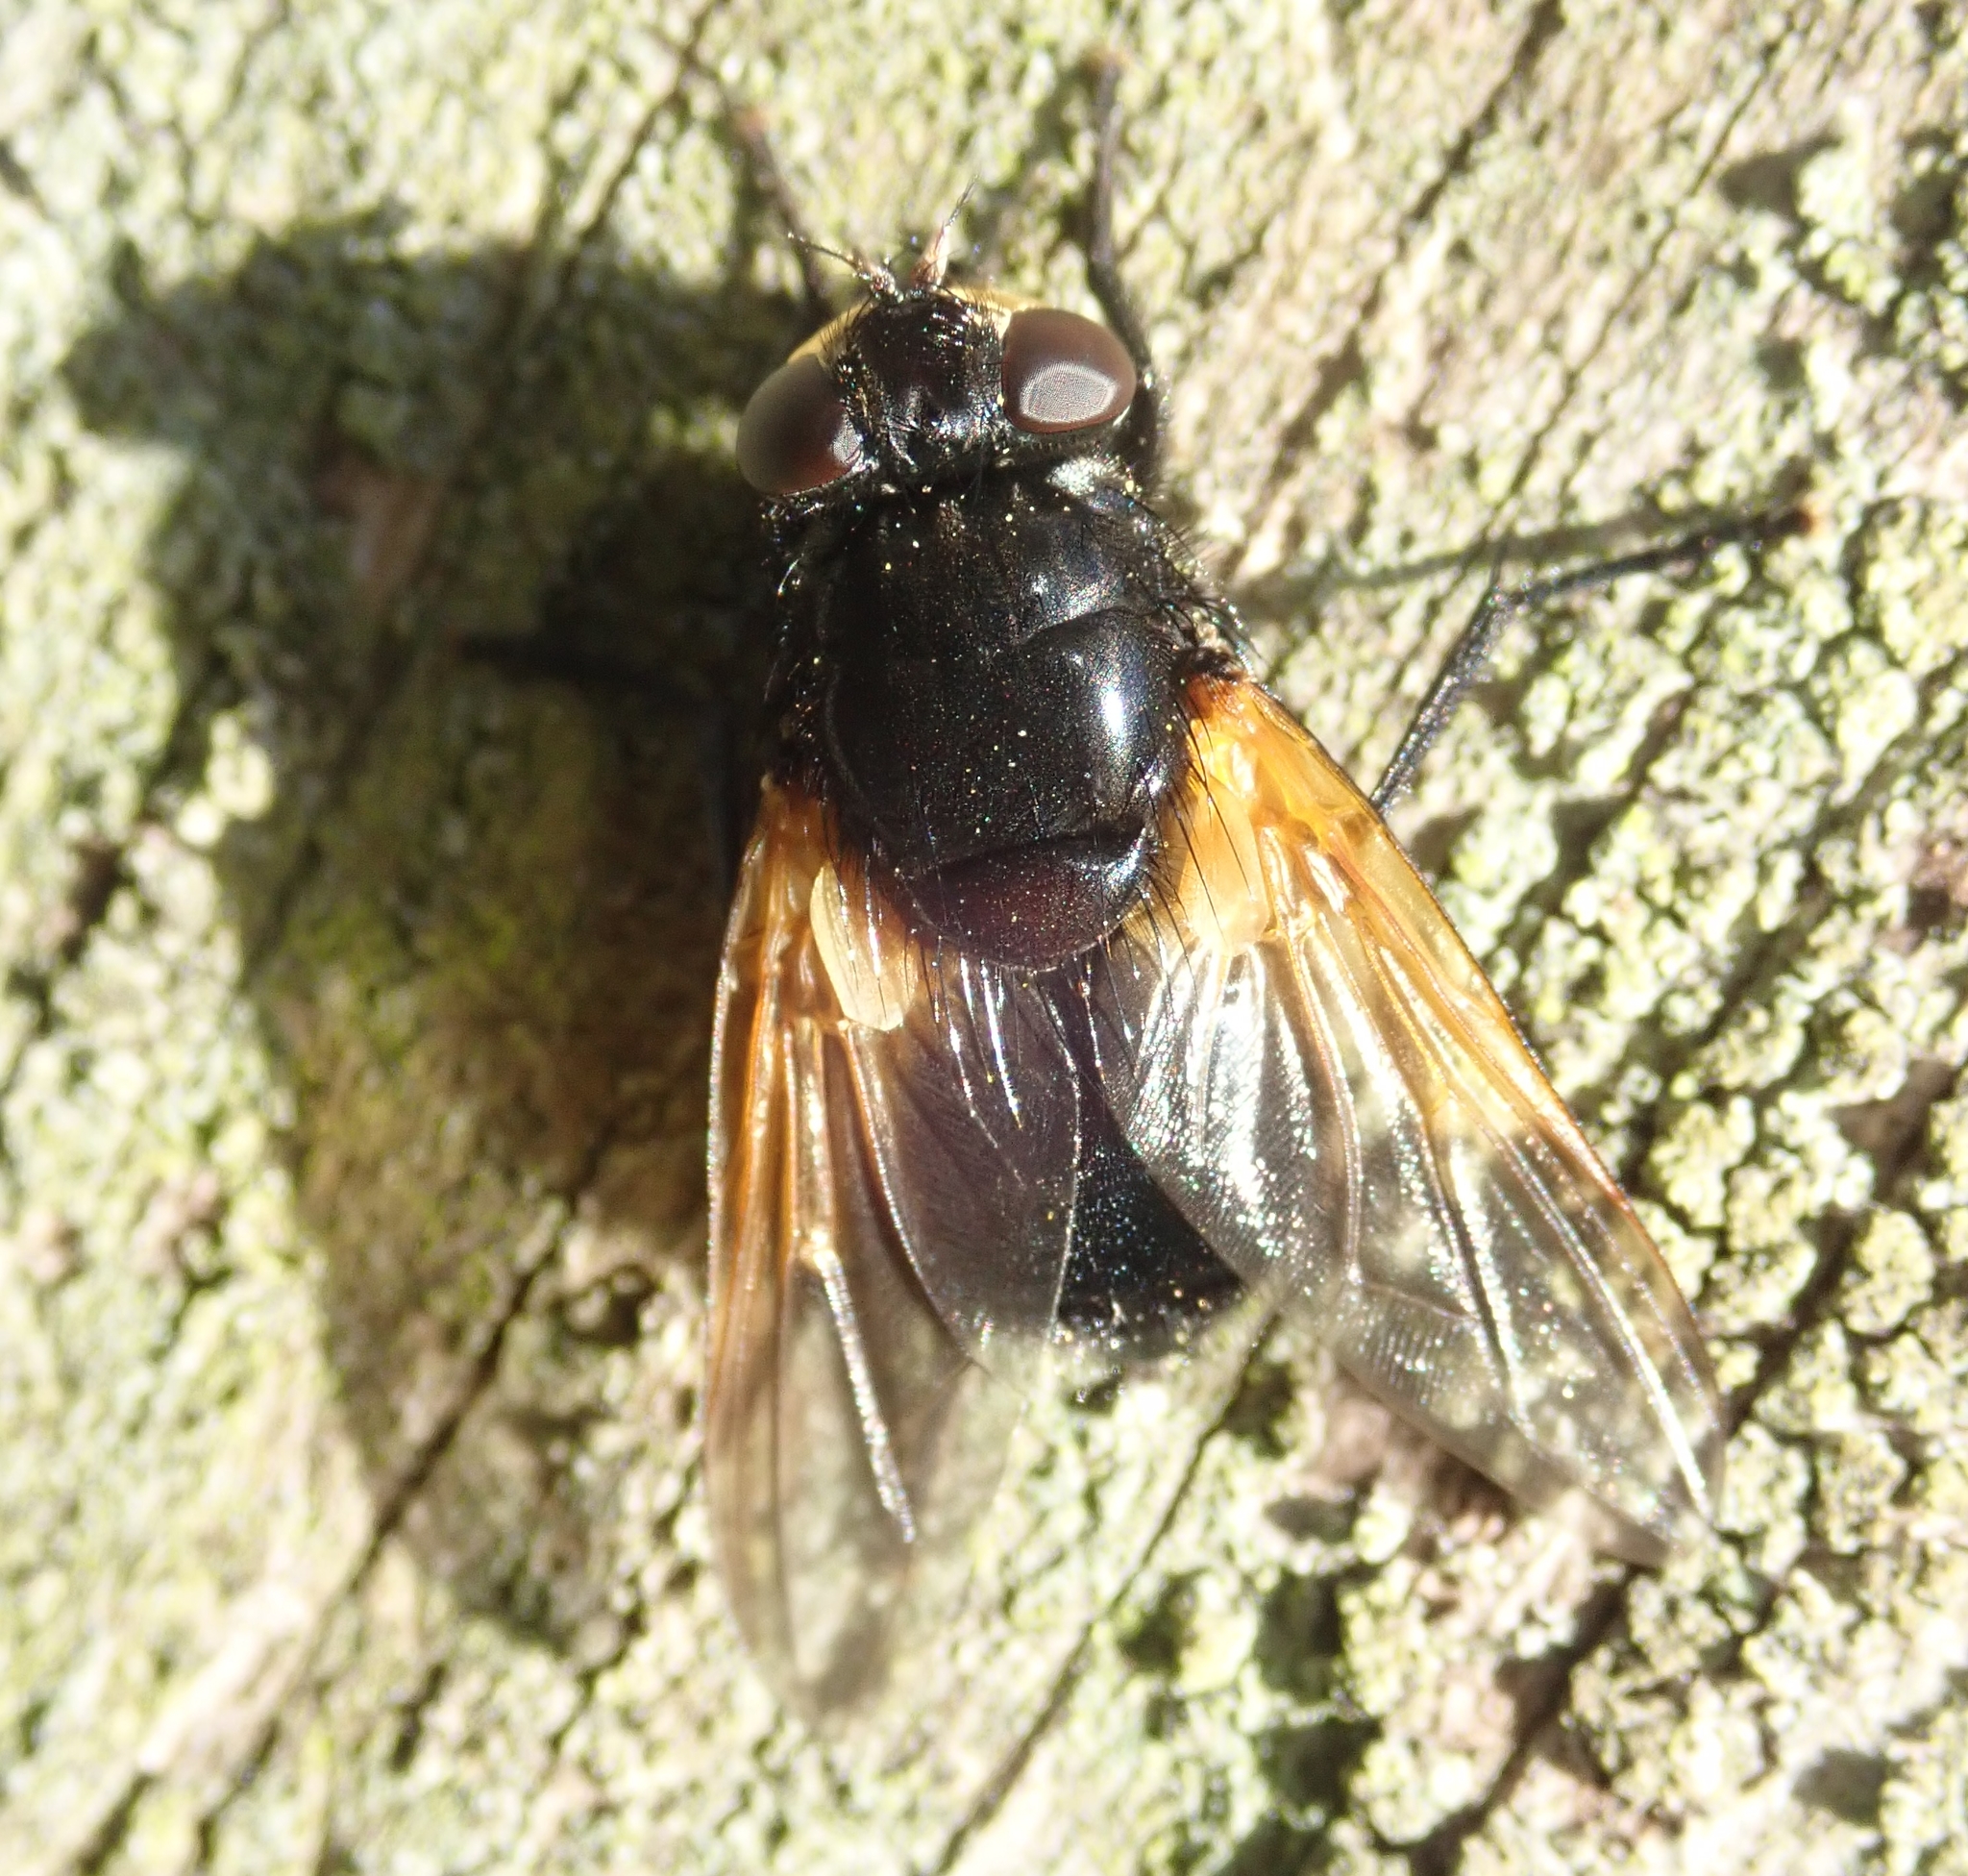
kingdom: Animalia
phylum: Arthropoda
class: Insecta
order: Diptera
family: Muscidae
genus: Mesembrina
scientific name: Mesembrina meridiana
